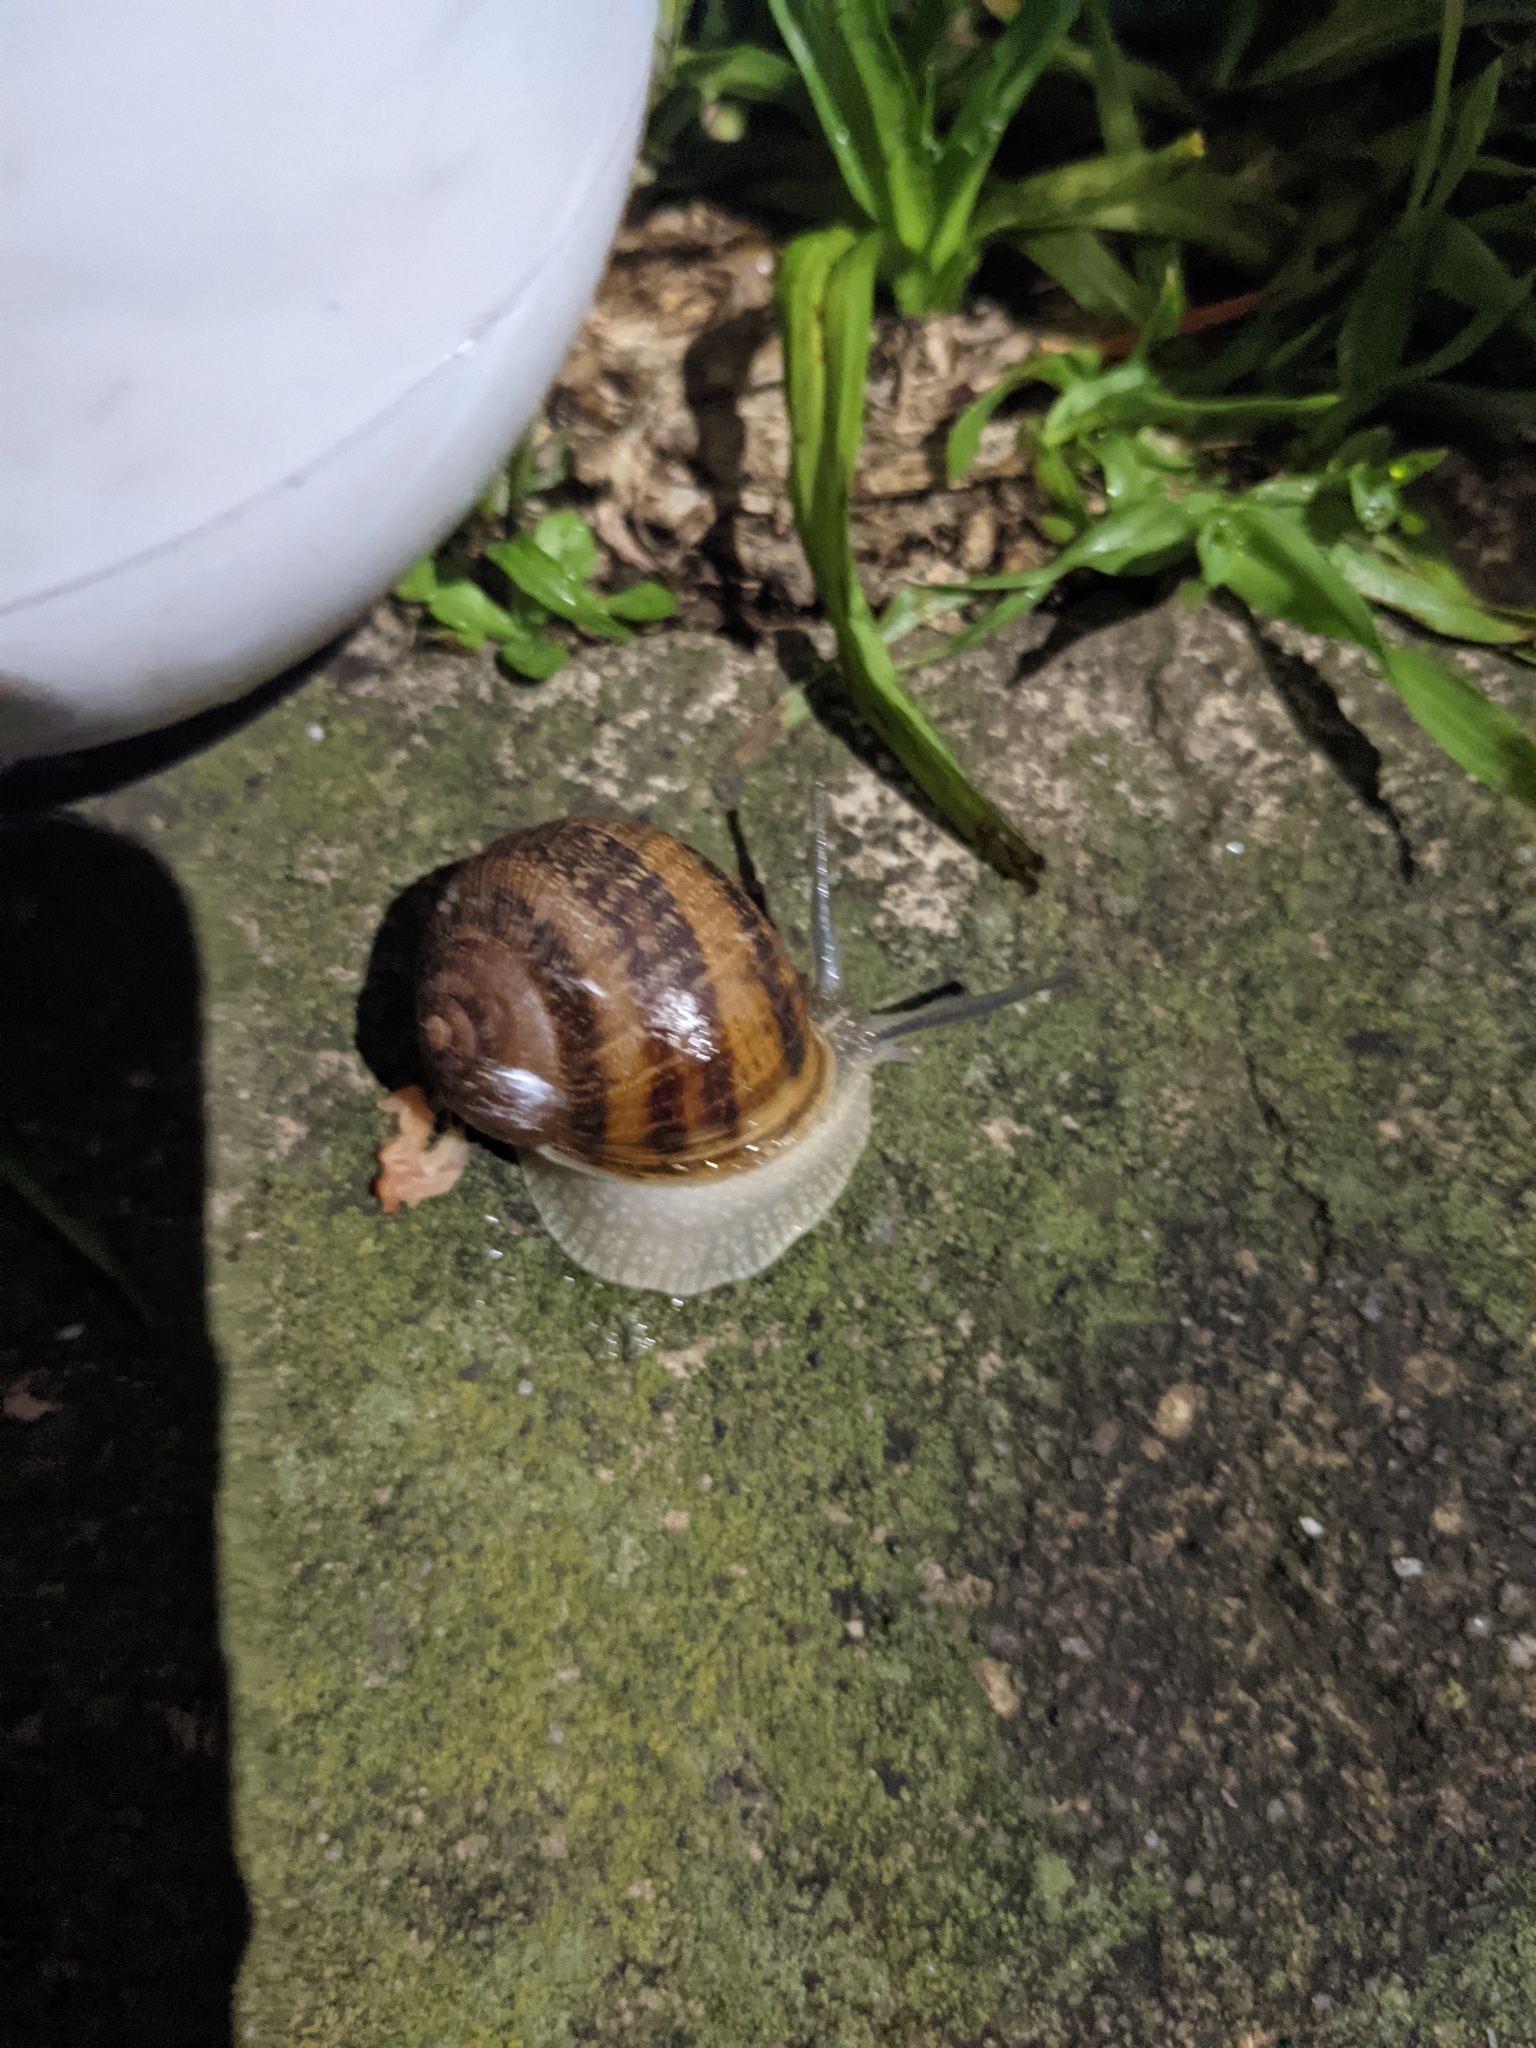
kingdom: Animalia
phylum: Mollusca
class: Gastropoda
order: Stylommatophora
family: Helicidae
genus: Cornu
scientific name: Cornu aspersum
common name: Brown garden snail
